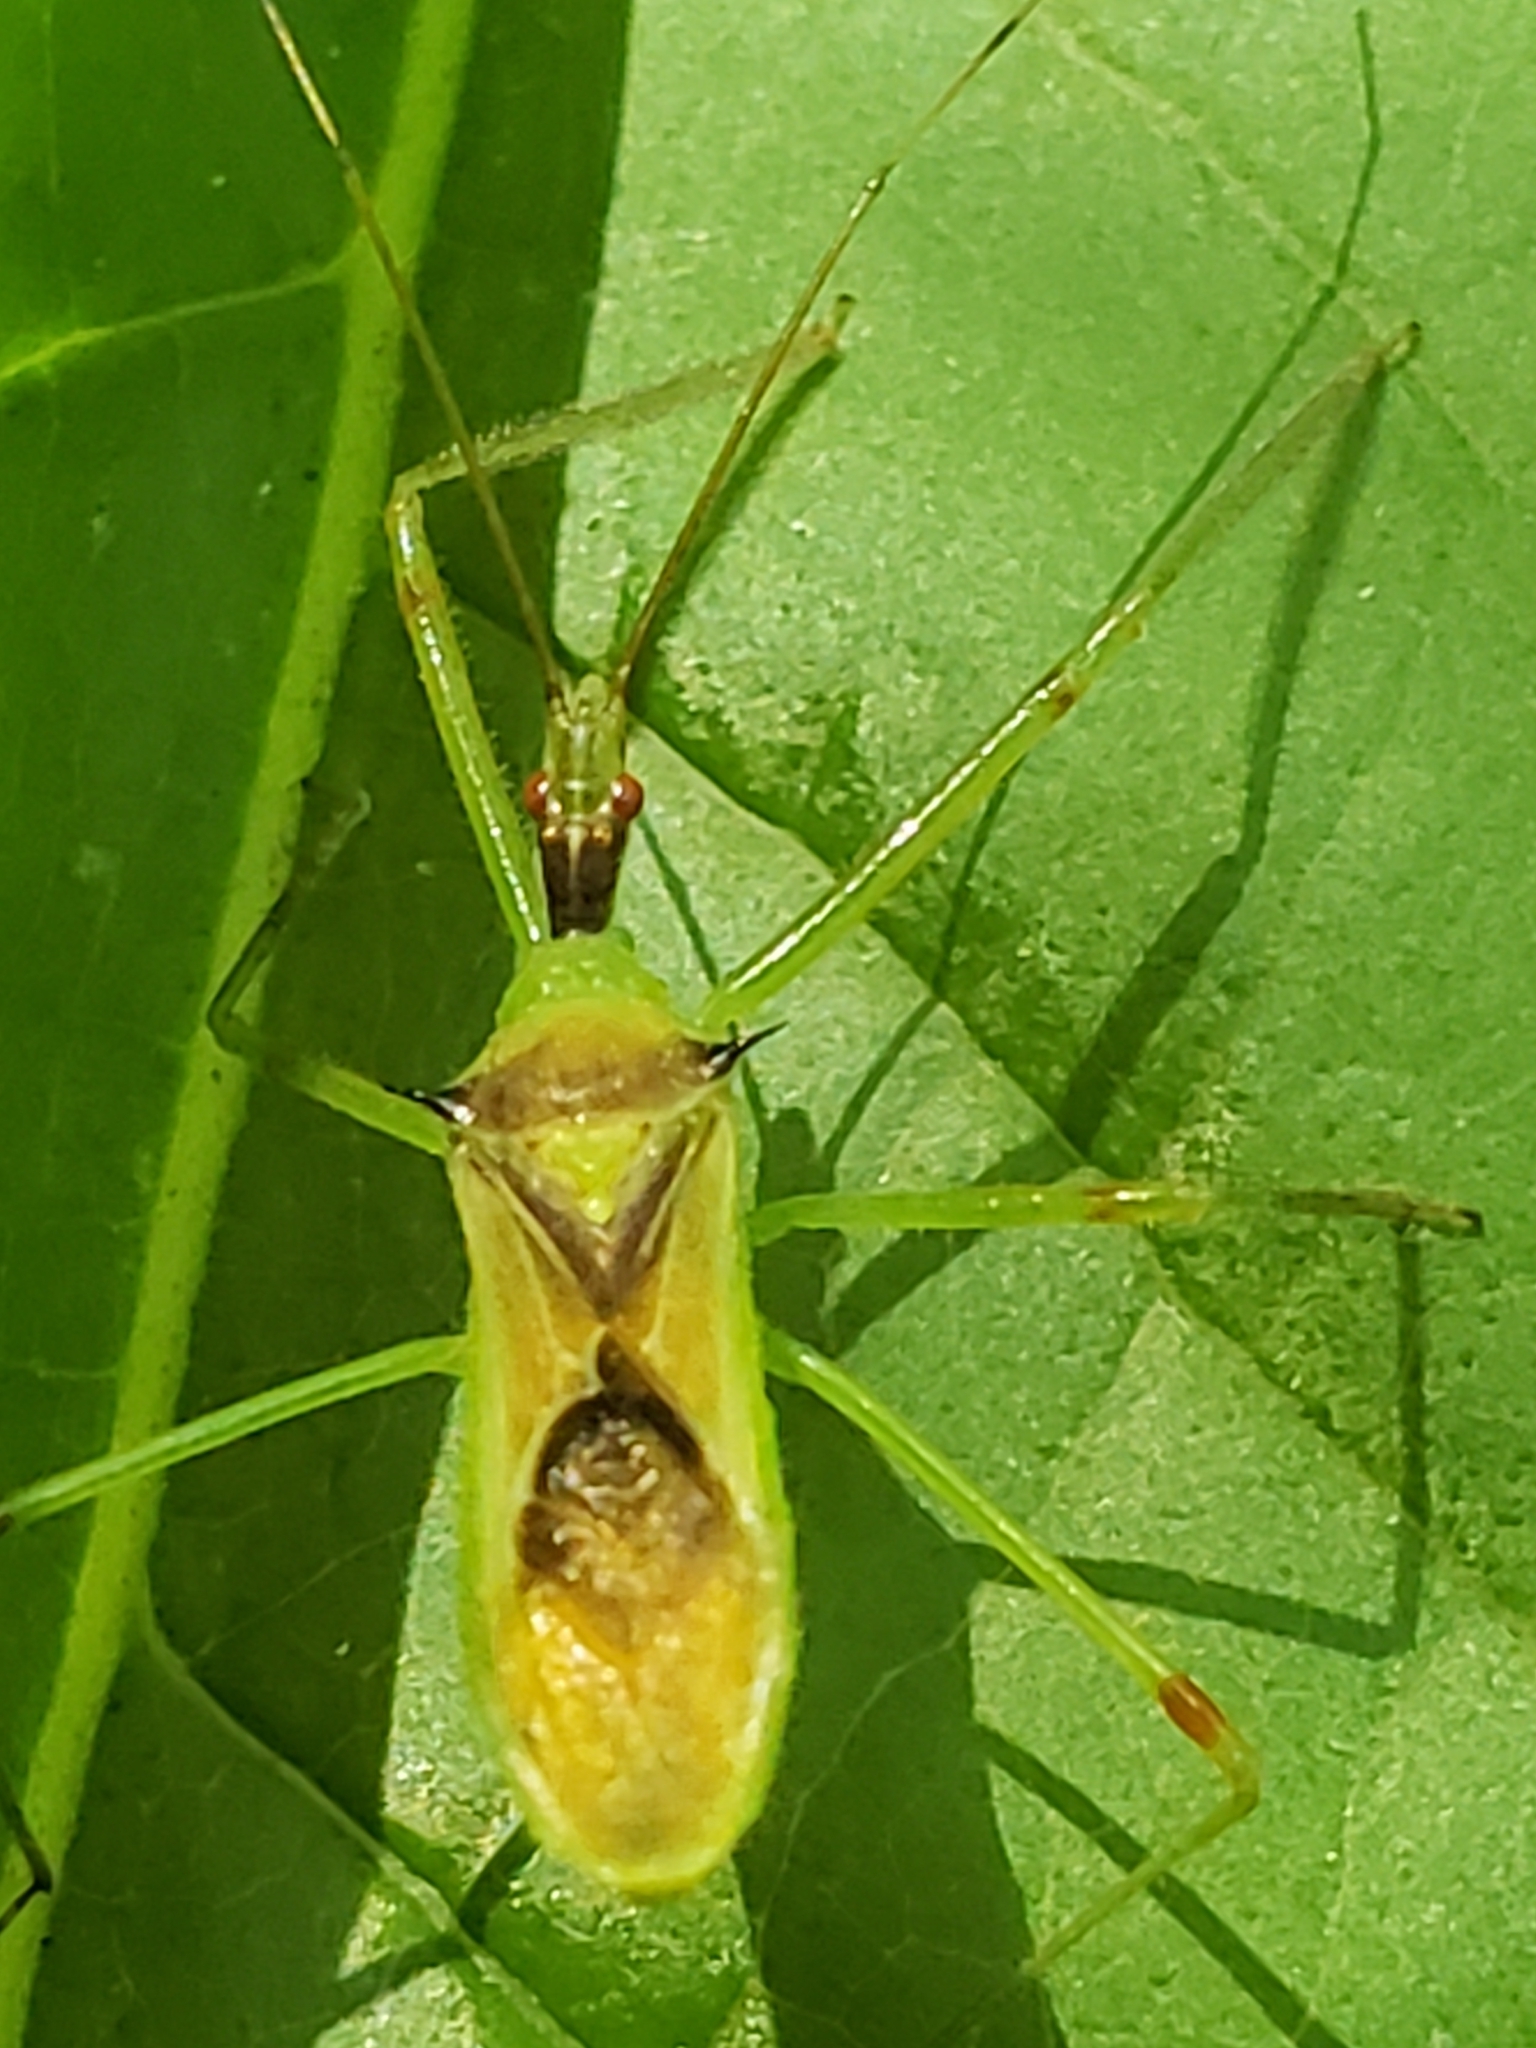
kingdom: Animalia
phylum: Arthropoda
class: Insecta
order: Hemiptera
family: Reduviidae
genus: Zelus
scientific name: Zelus luridus
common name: Pale green assassin bug
